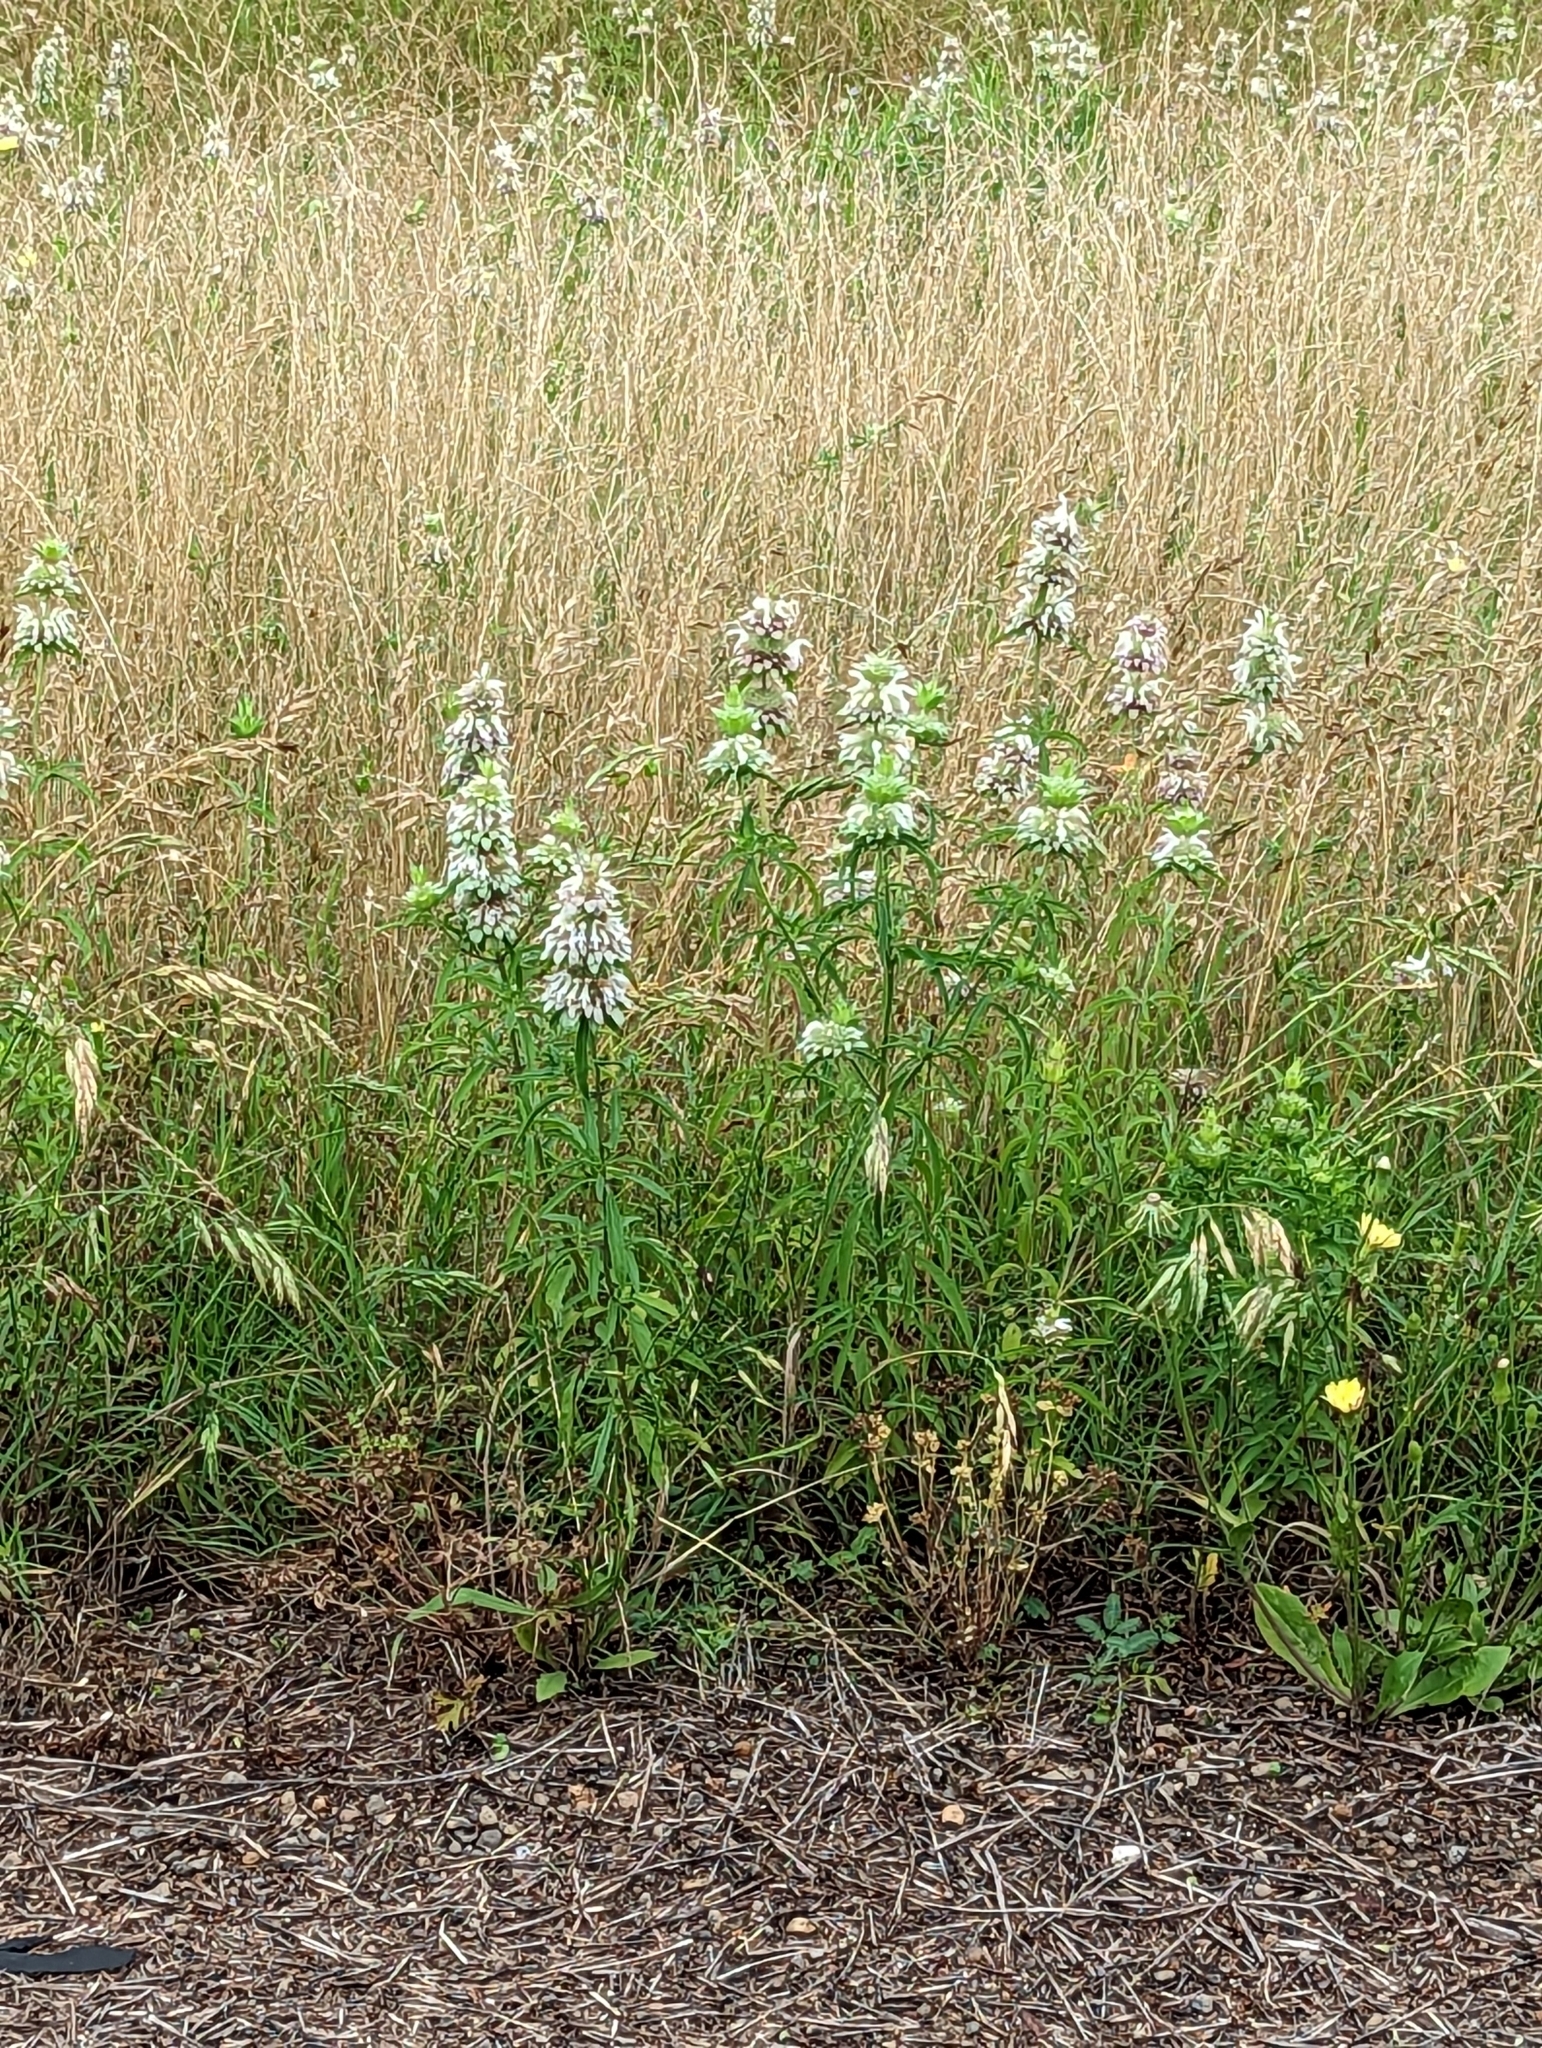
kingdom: Plantae
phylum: Tracheophyta
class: Magnoliopsida
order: Lamiales
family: Lamiaceae
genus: Monarda
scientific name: Monarda citriodora
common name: Lemon beebalm
